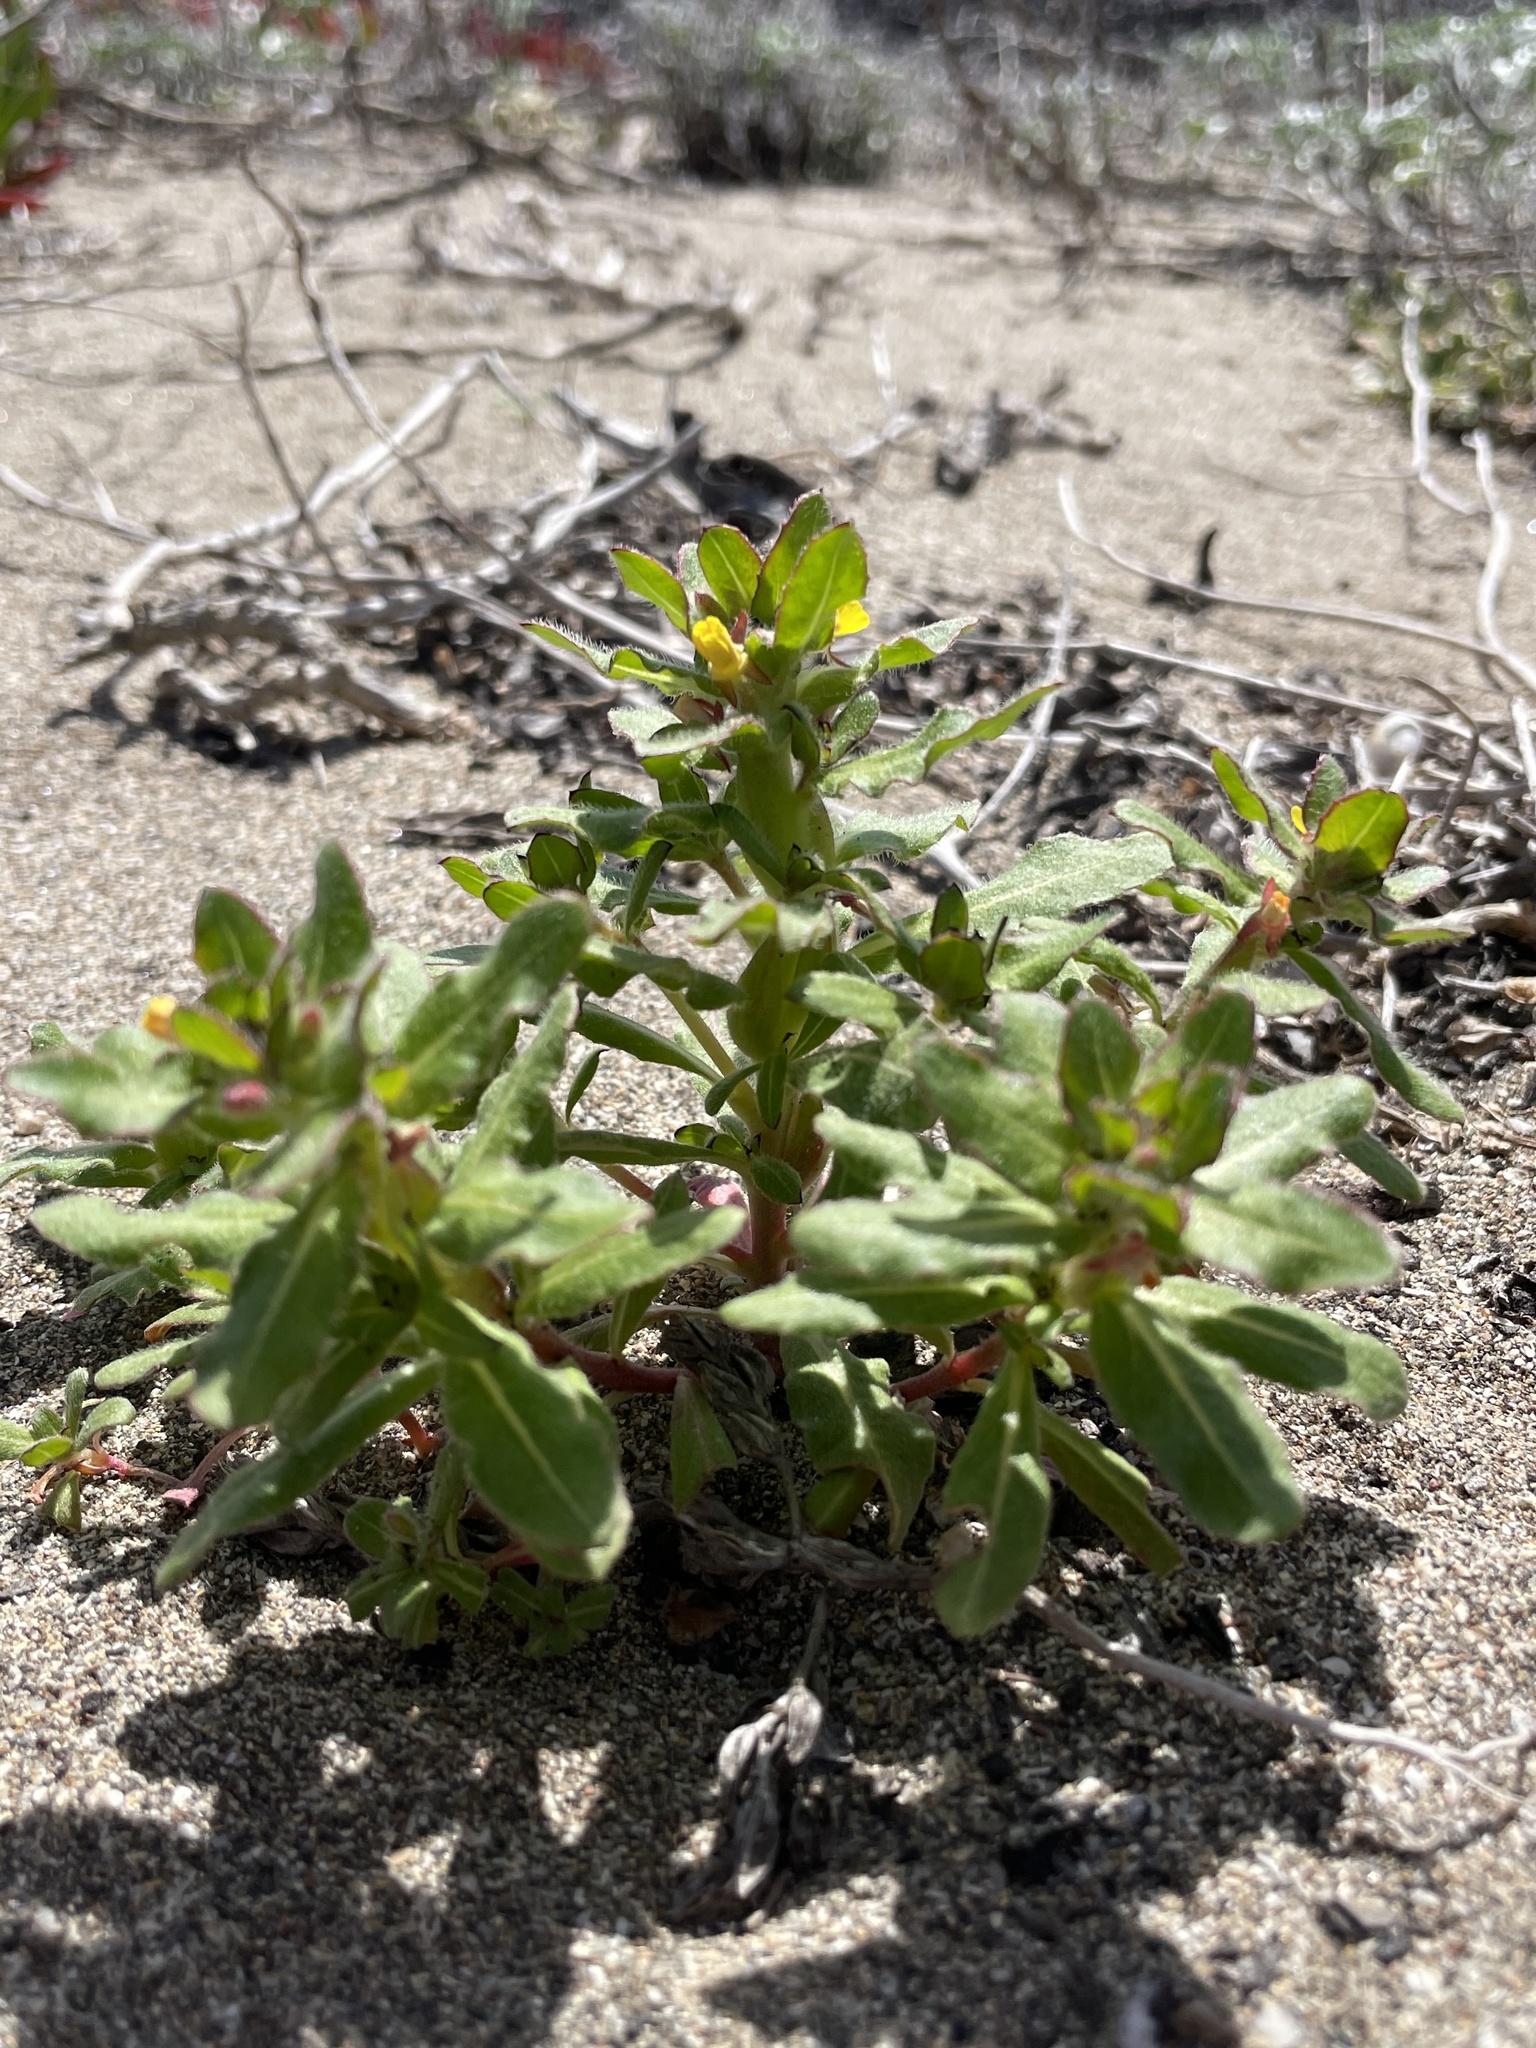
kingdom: Plantae
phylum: Tracheophyta
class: Magnoliopsida
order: Myrtales
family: Onagraceae
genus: Camissoniopsis
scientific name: Camissoniopsis guadalupensis
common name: Guadalupe suncup
